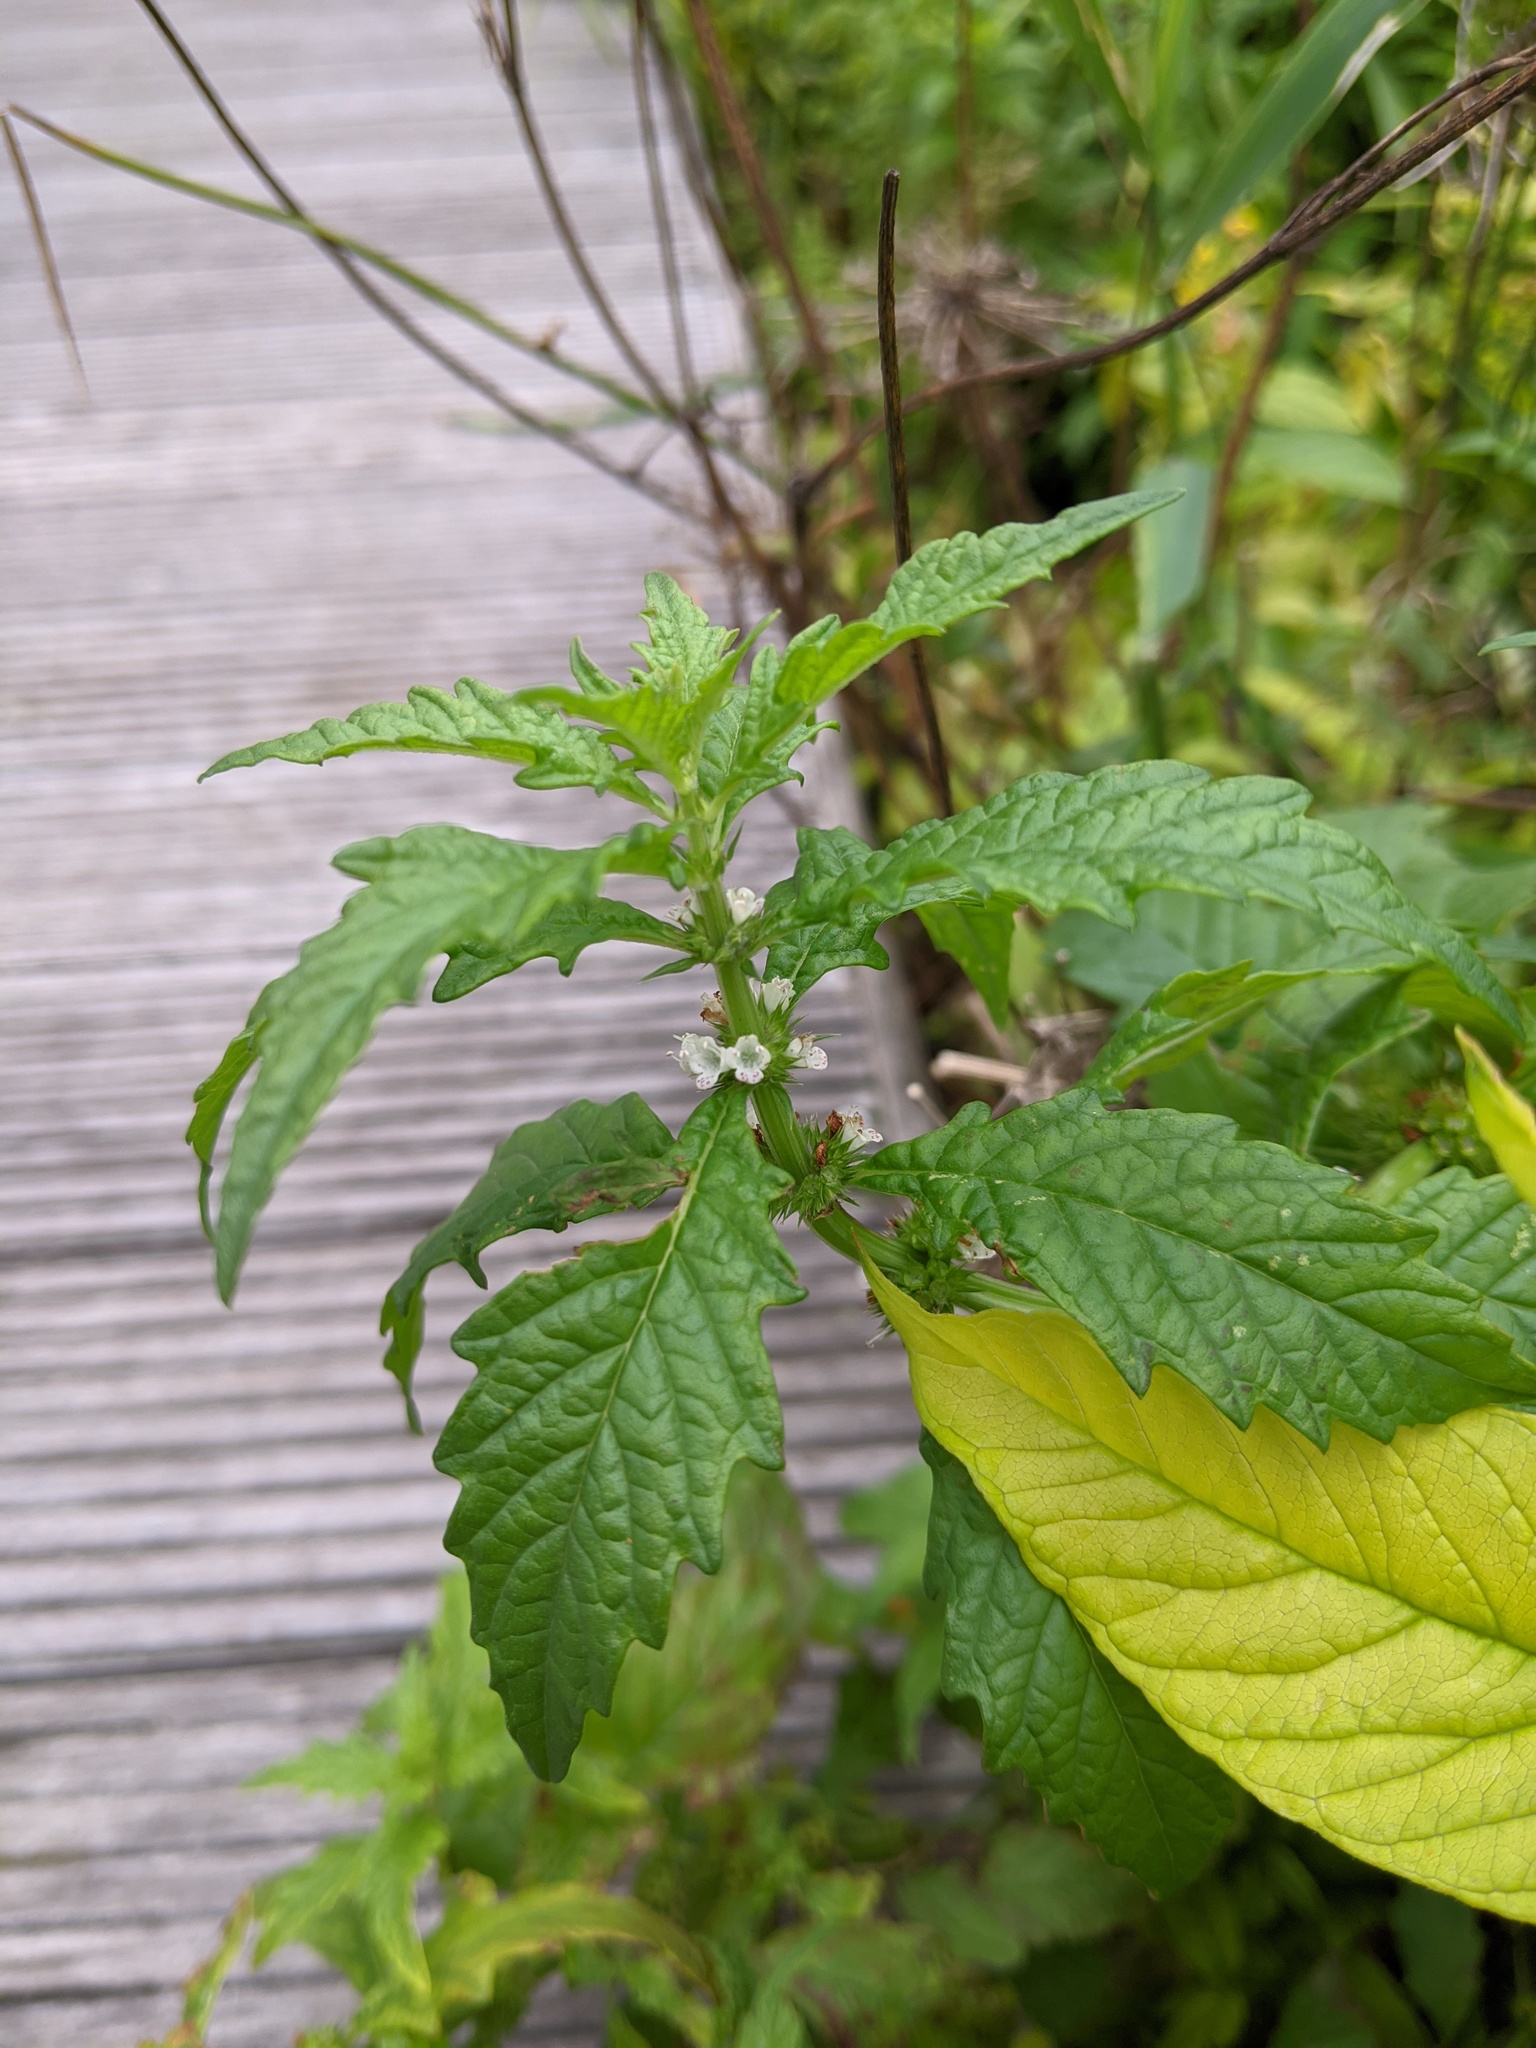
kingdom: Plantae
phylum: Tracheophyta
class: Magnoliopsida
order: Lamiales
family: Lamiaceae
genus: Lycopus
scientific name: Lycopus europaeus
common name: European bugleweed
